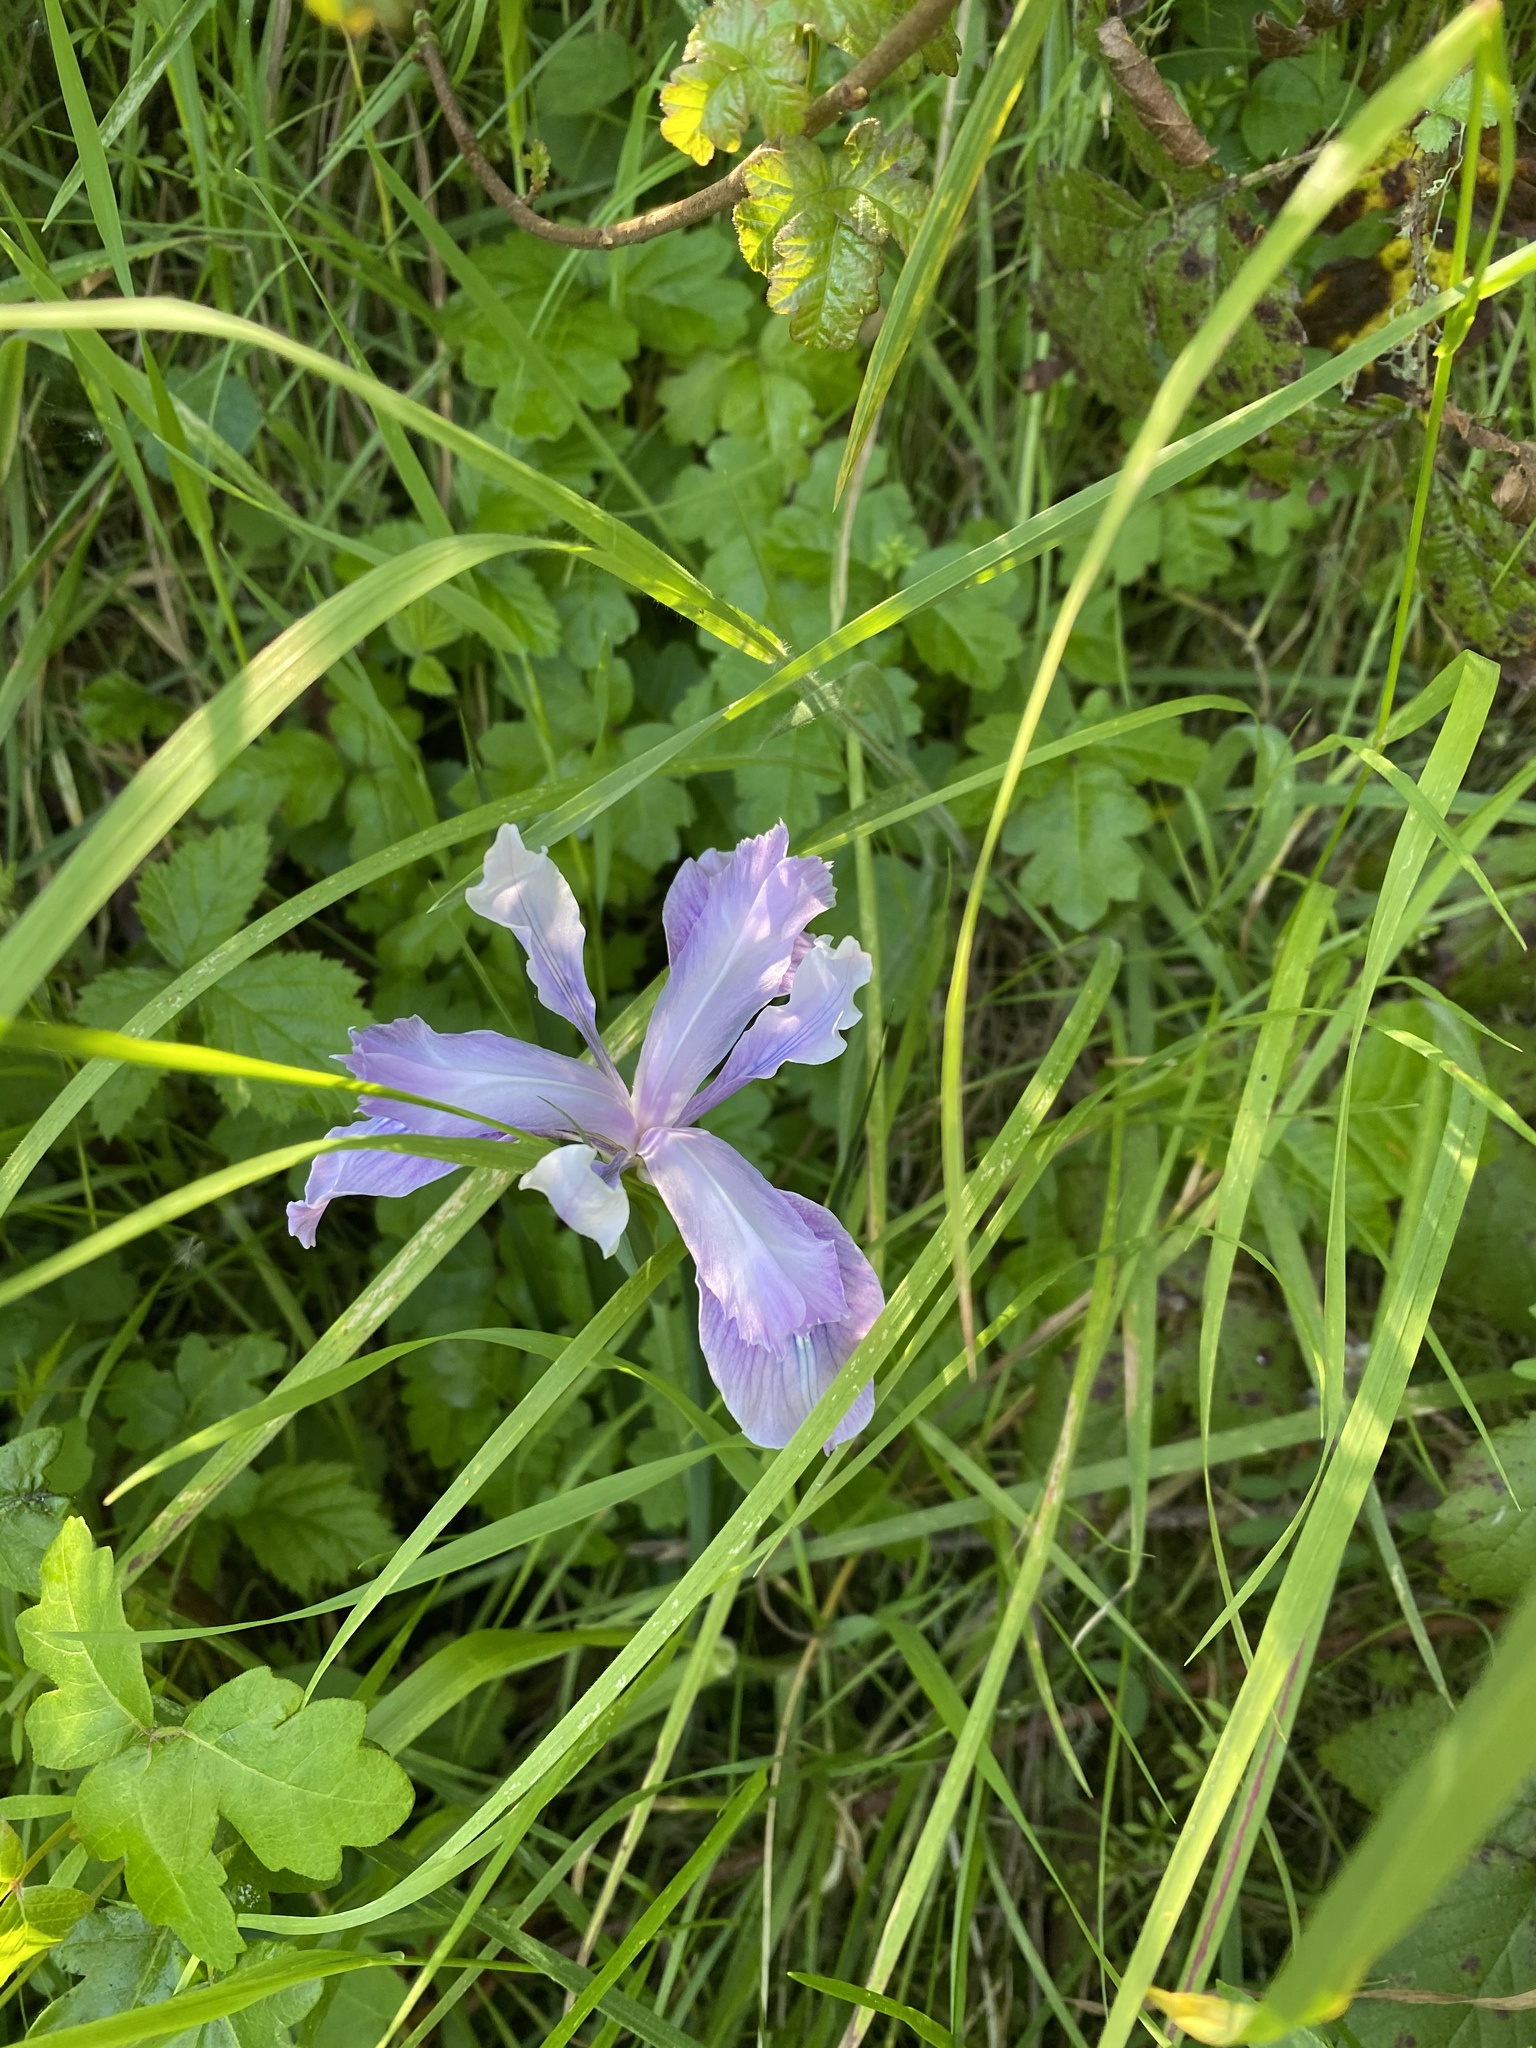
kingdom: Plantae
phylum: Tracheophyta
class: Liliopsida
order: Asparagales
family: Iridaceae
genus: Iris
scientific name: Iris douglasiana
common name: Marin iris
